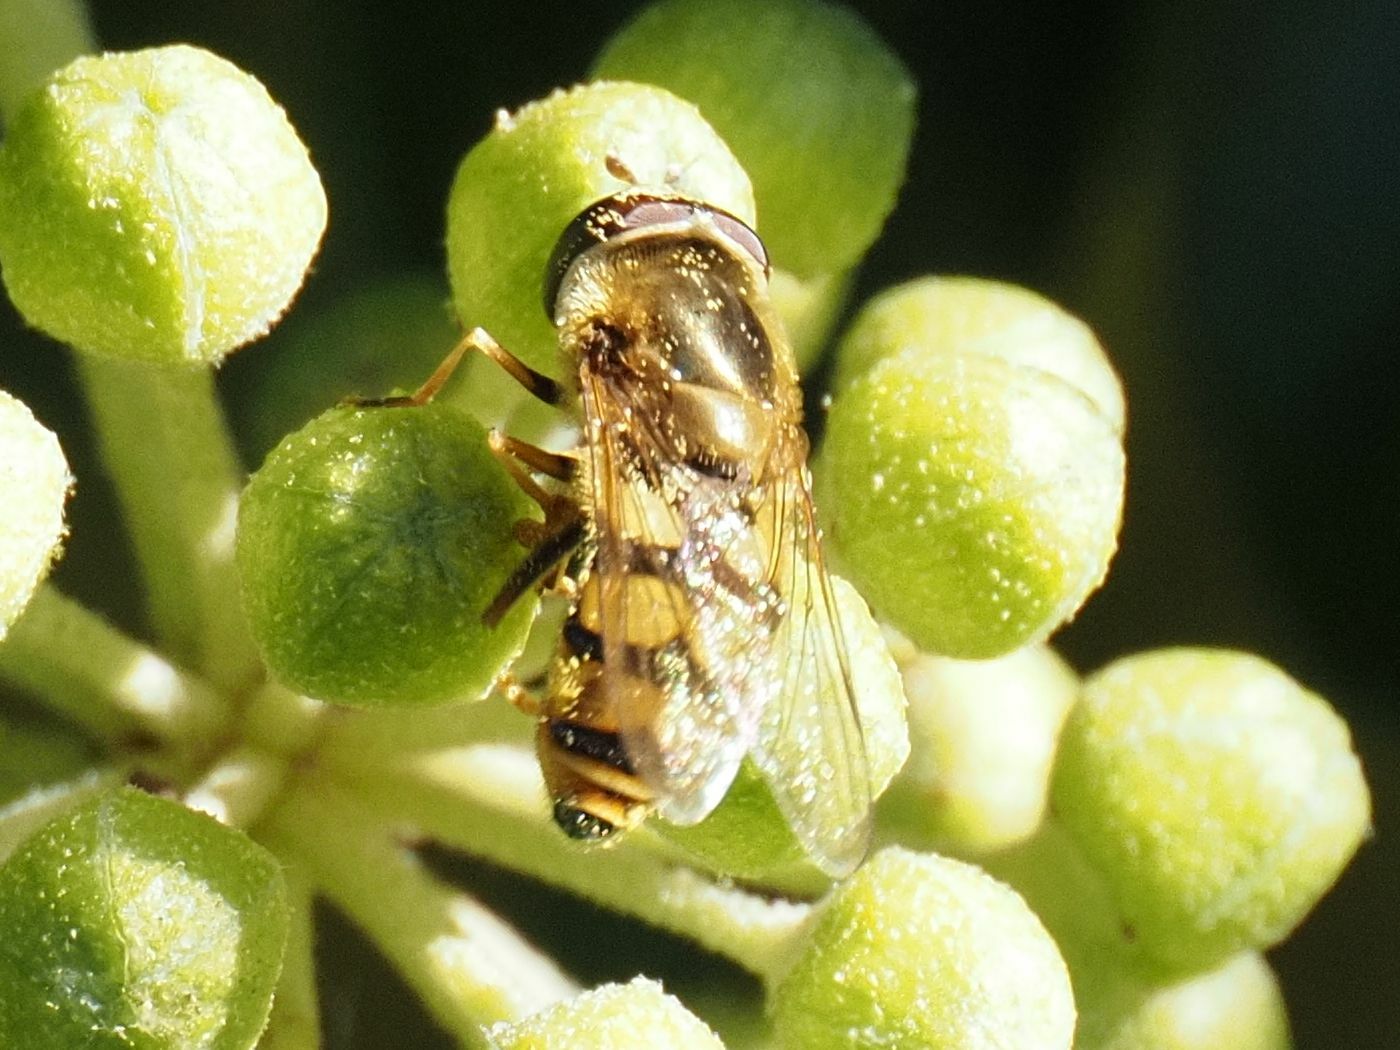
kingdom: Animalia
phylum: Arthropoda
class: Insecta
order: Diptera
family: Syrphidae
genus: Eupeodes
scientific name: Eupeodes corollae
